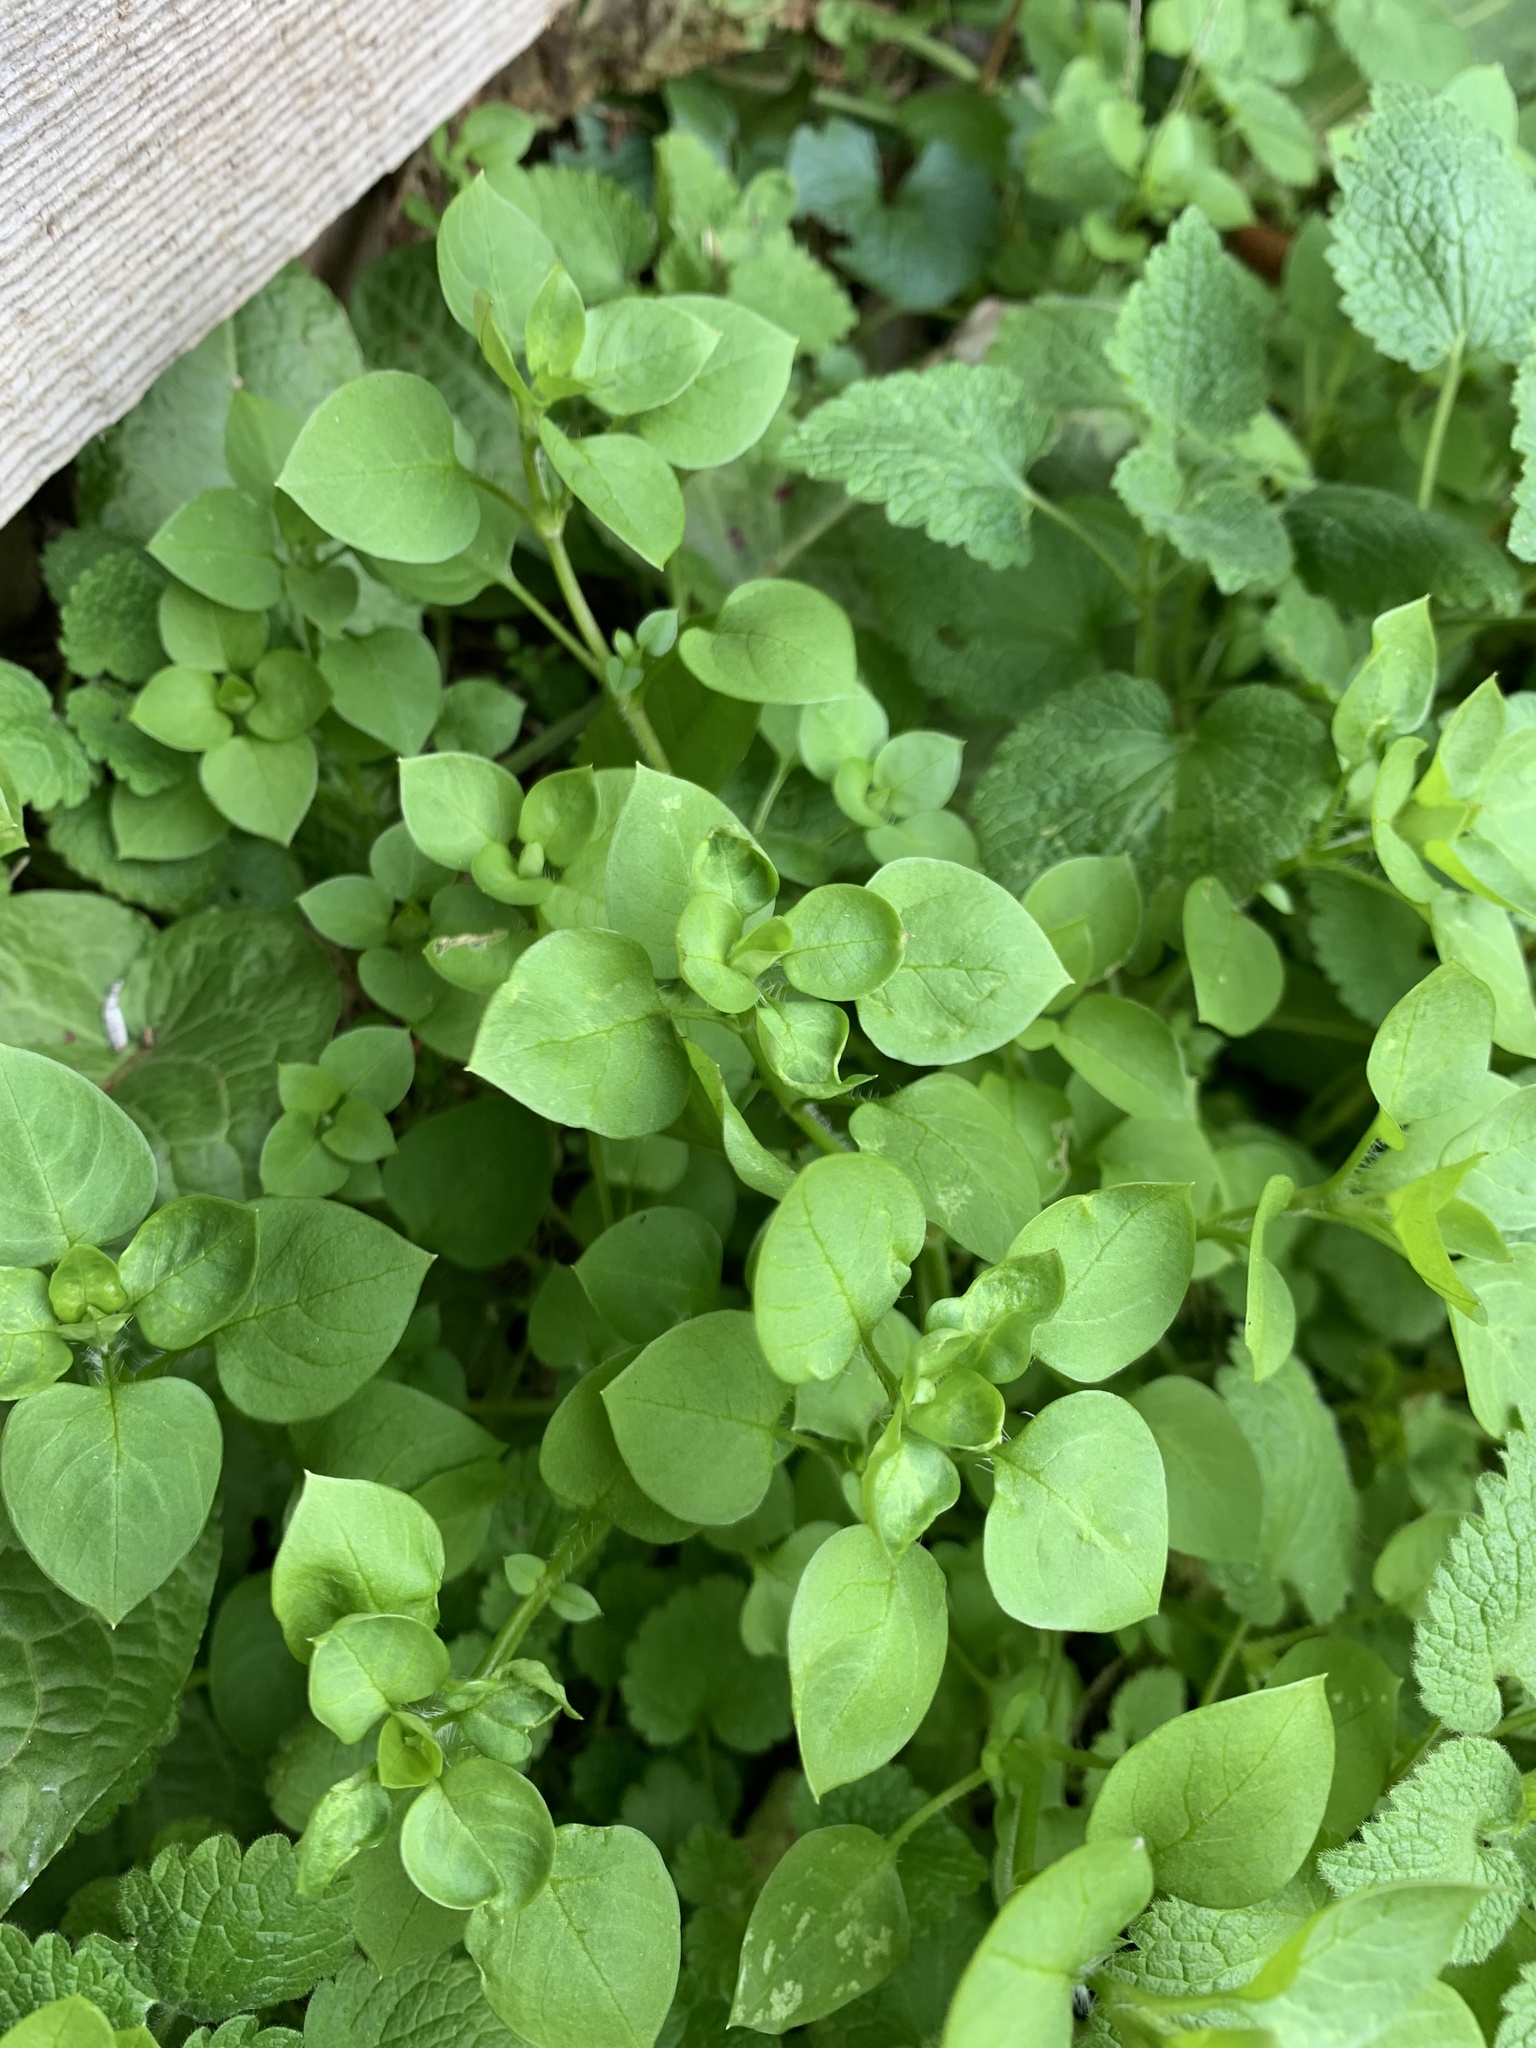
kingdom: Plantae
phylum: Tracheophyta
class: Magnoliopsida
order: Caryophyllales
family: Caryophyllaceae
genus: Stellaria
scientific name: Stellaria media
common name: Common chickweed
